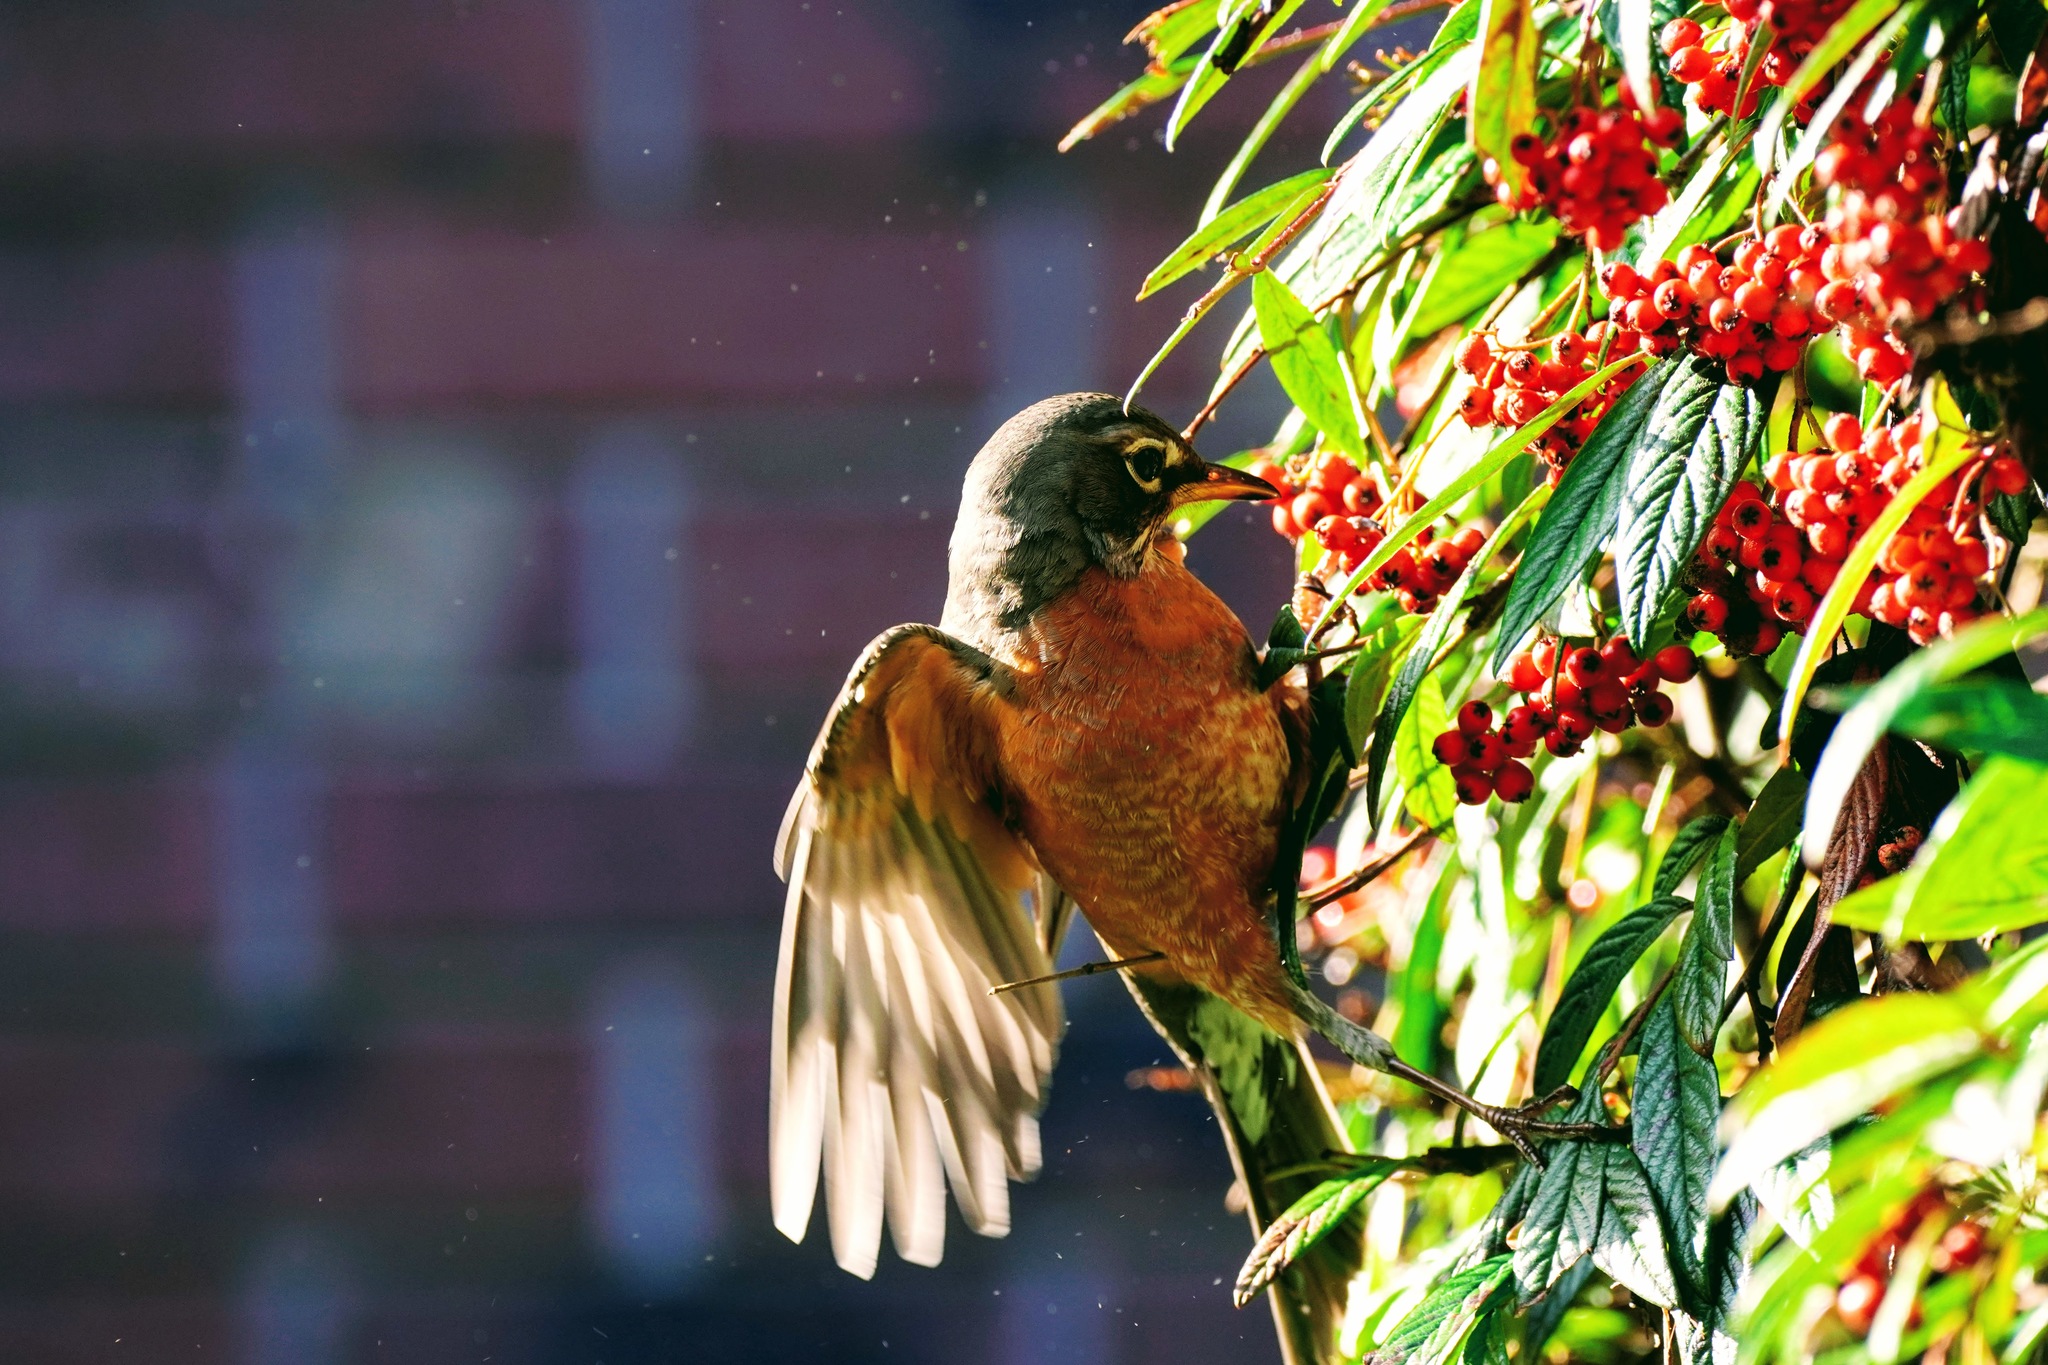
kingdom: Animalia
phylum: Chordata
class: Aves
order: Passeriformes
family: Turdidae
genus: Turdus
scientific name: Turdus migratorius
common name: American robin
